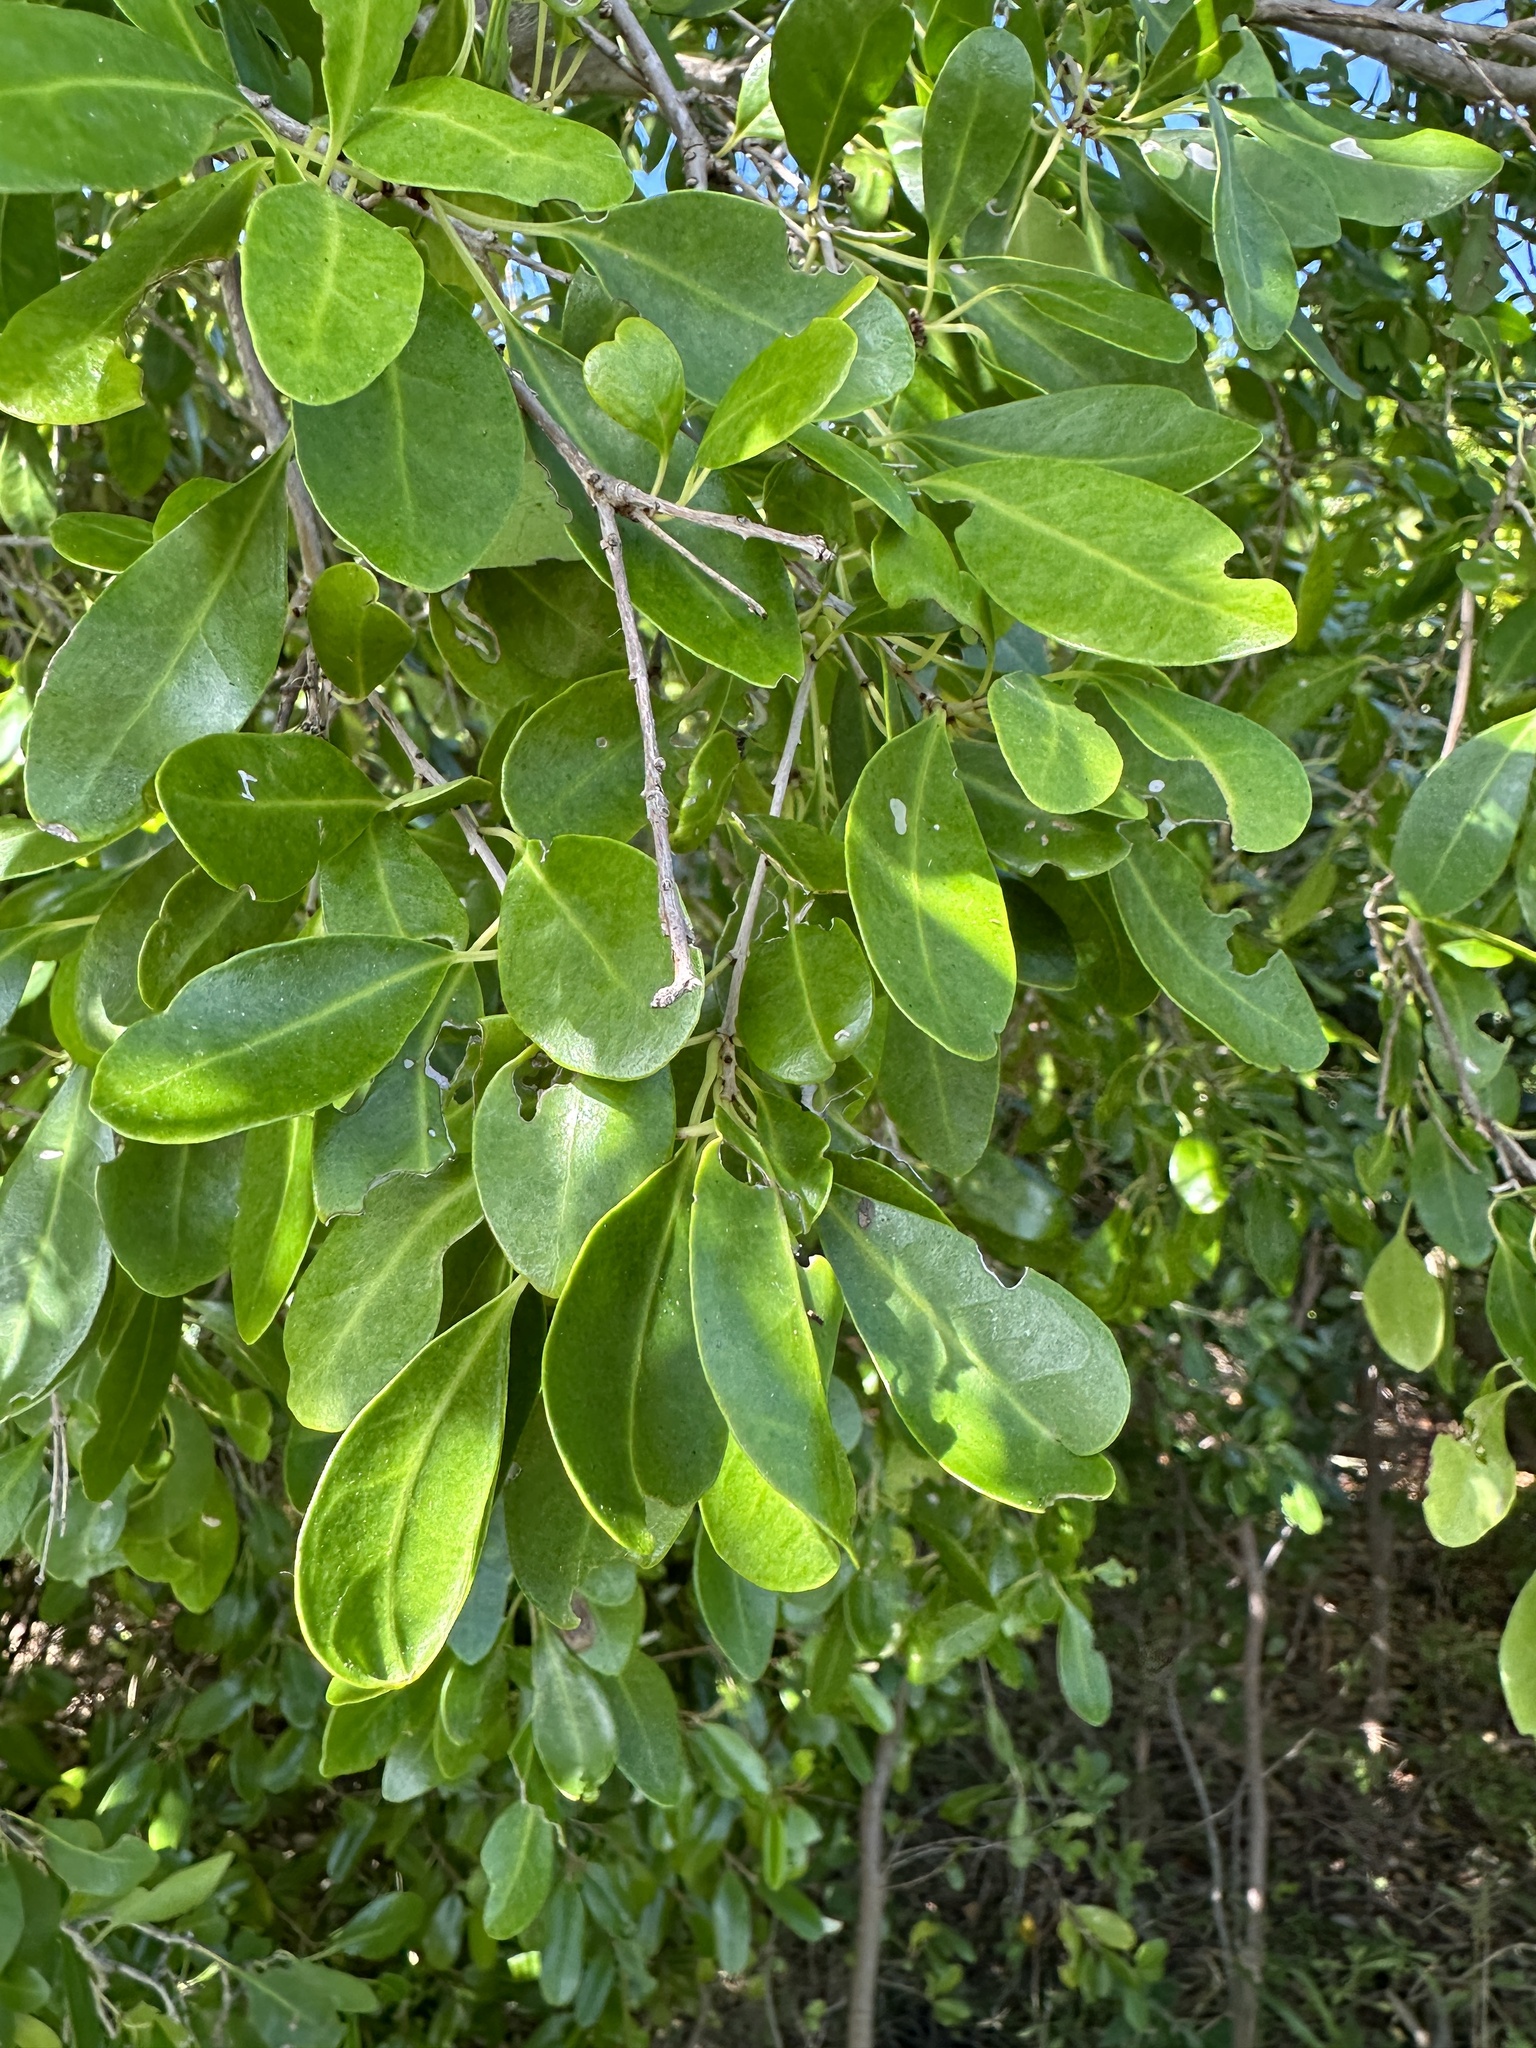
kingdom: Plantae
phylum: Tracheophyta
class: Magnoliopsida
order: Caryophyllales
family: Nyctaginaceae
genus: Guapira
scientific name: Guapira discolor
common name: Beeftree
